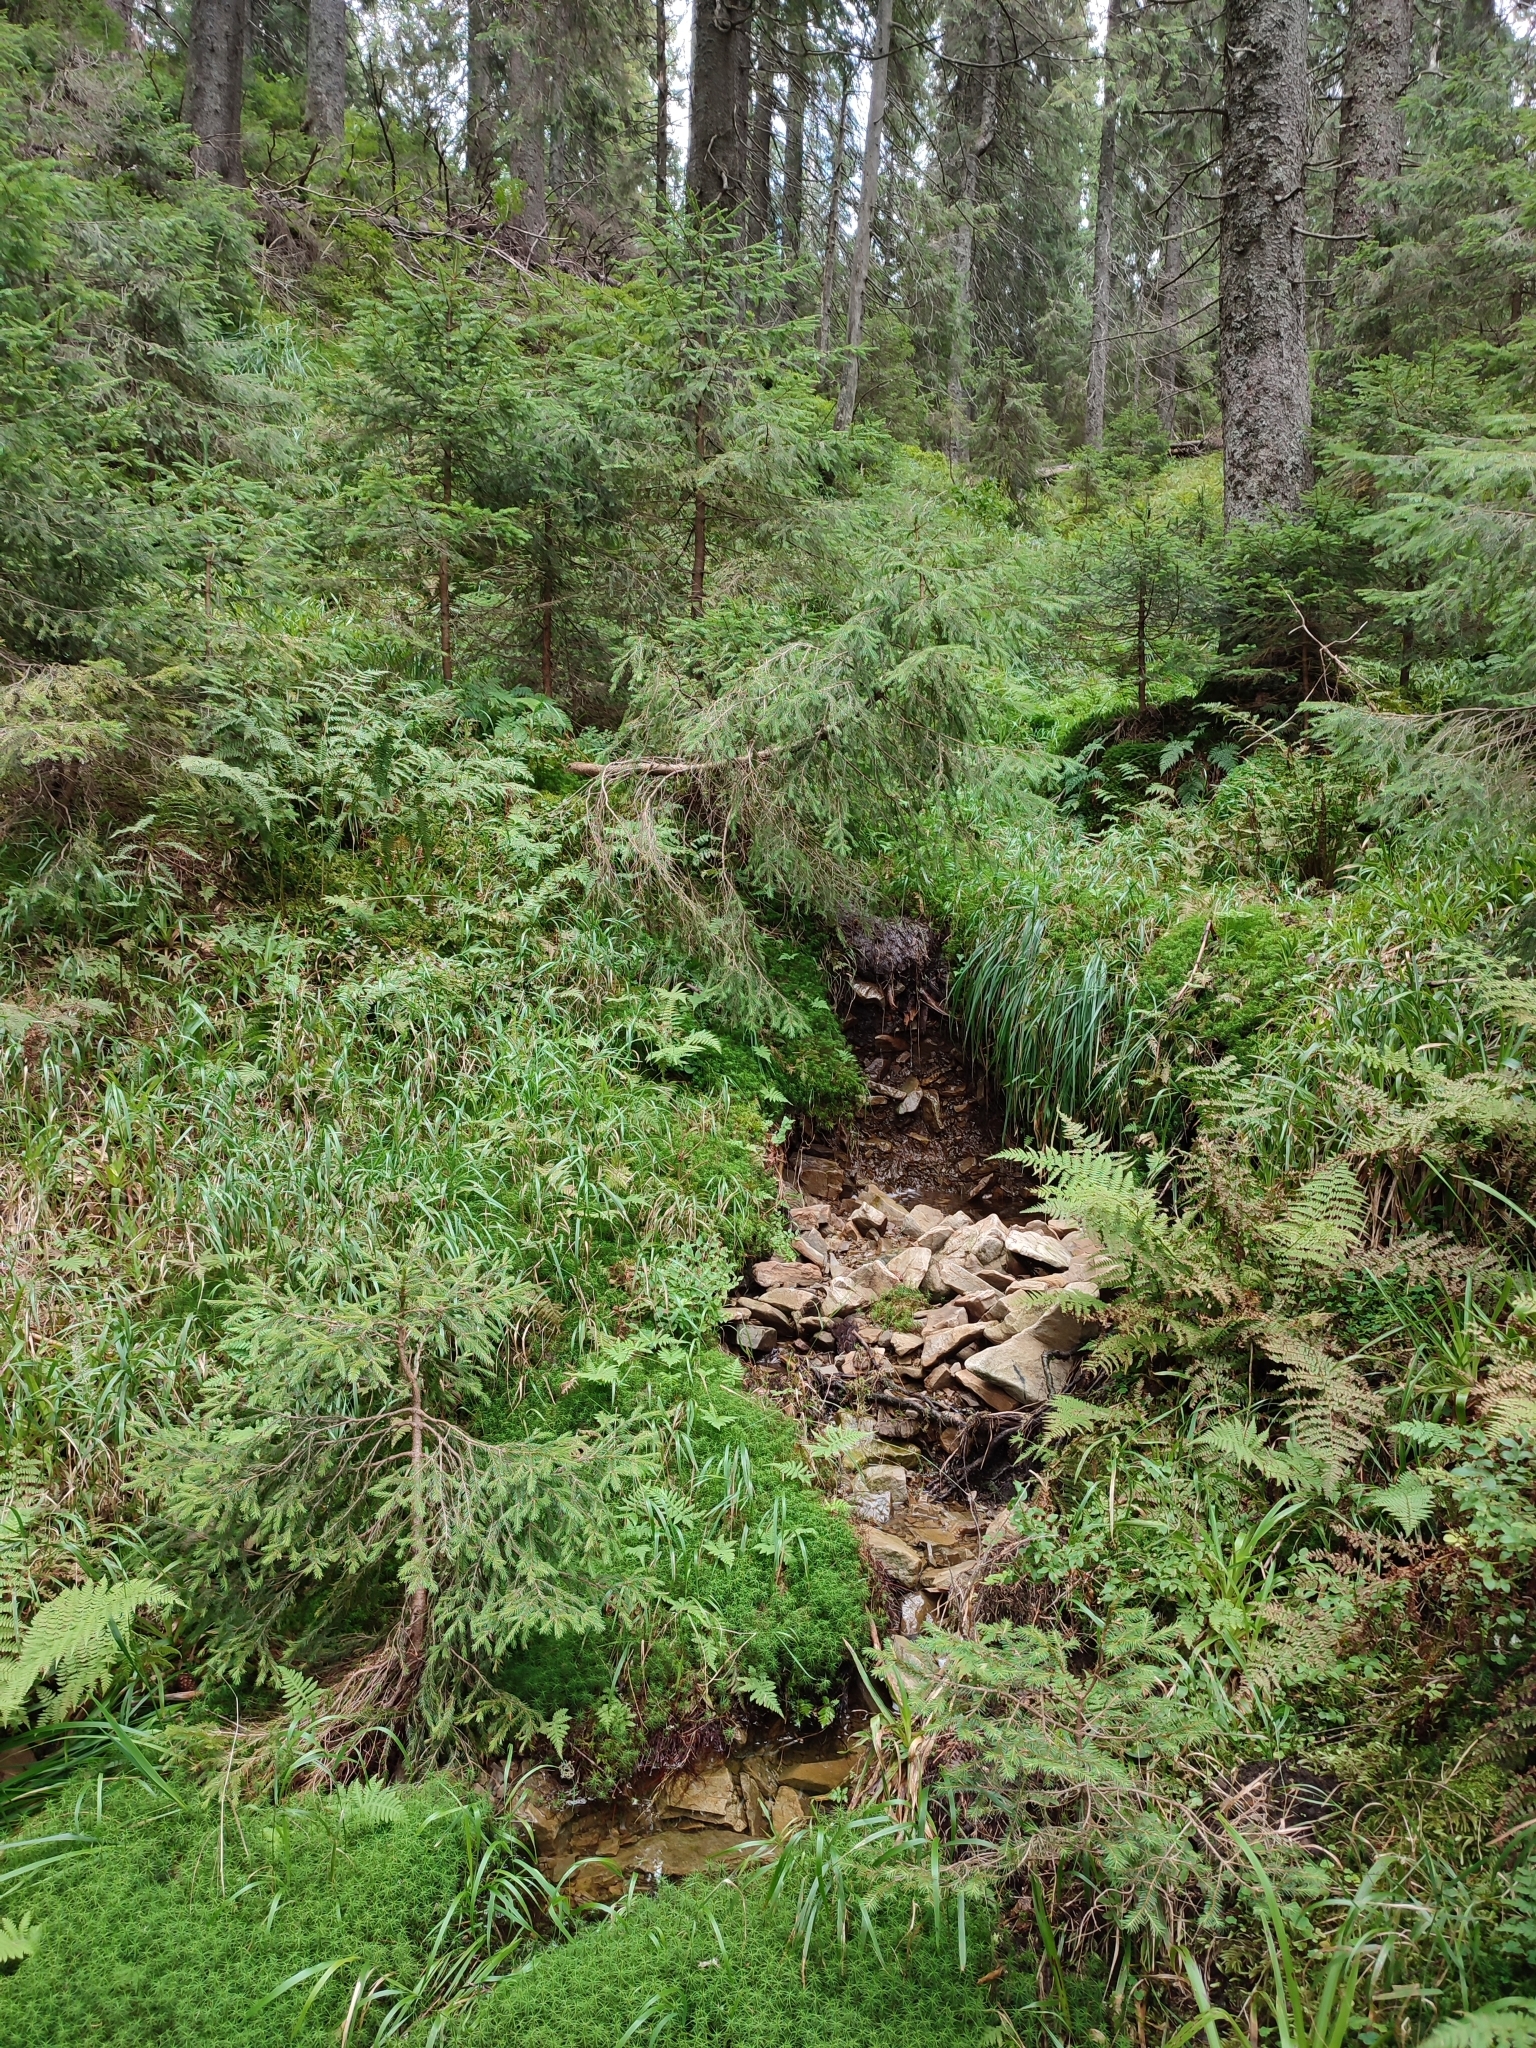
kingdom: Plantae
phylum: Tracheophyta
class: Pinopsida
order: Pinales
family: Pinaceae
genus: Picea
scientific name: Picea abies
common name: Norway spruce
